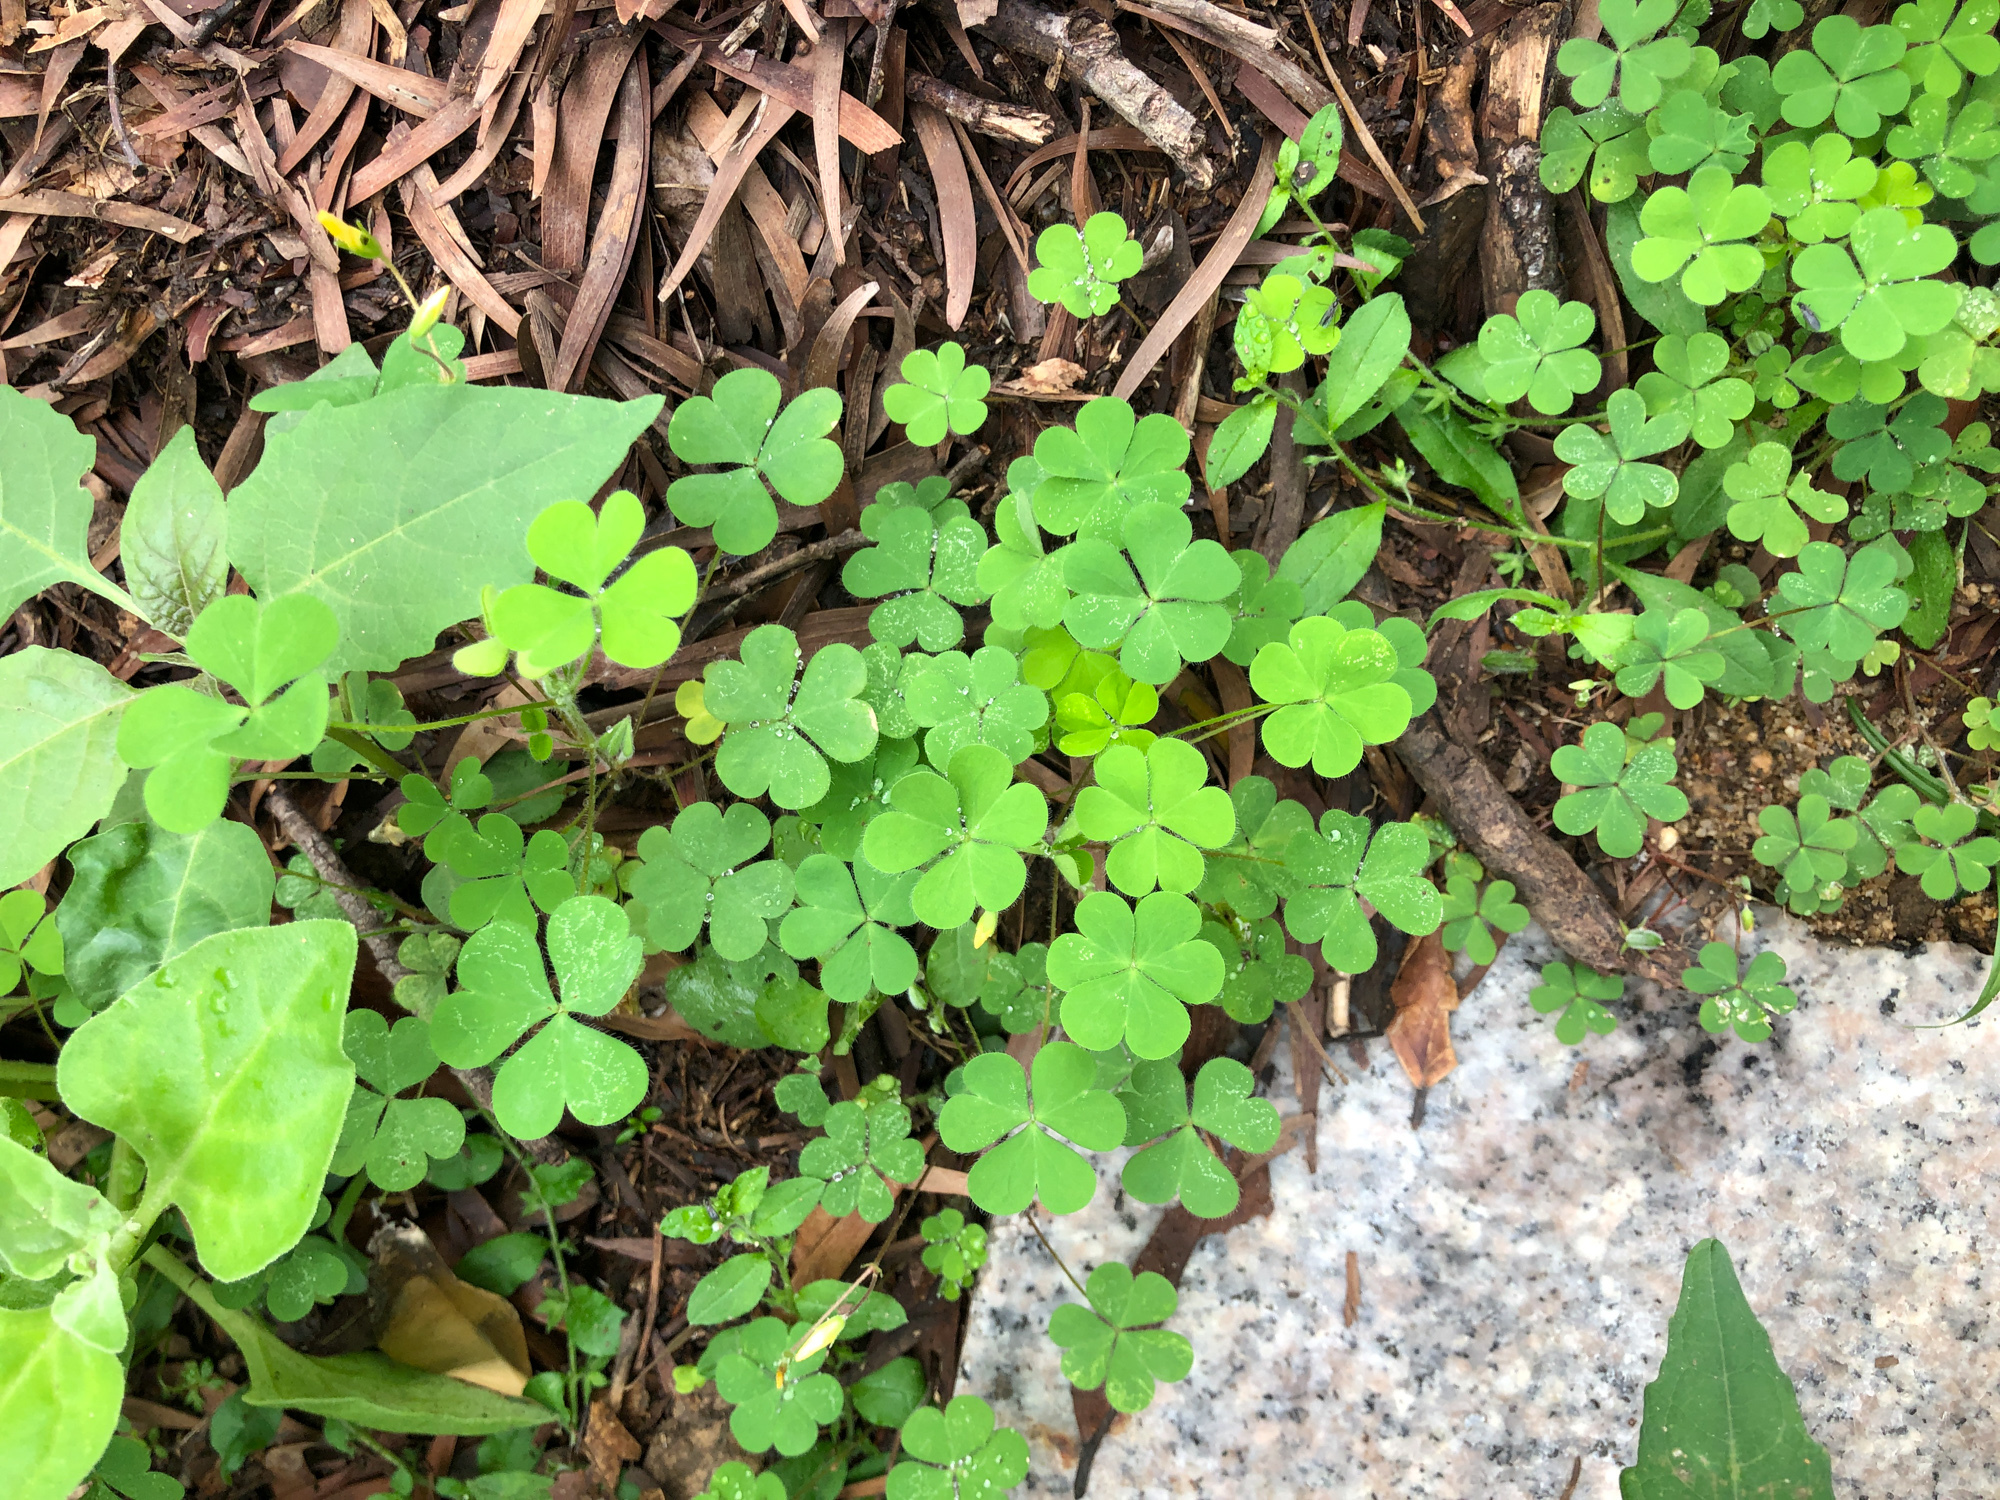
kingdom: Plantae
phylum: Tracheophyta
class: Magnoliopsida
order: Oxalidales
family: Oxalidaceae
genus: Oxalis
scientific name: Oxalis corniculata
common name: Procumbent yellow-sorrel
